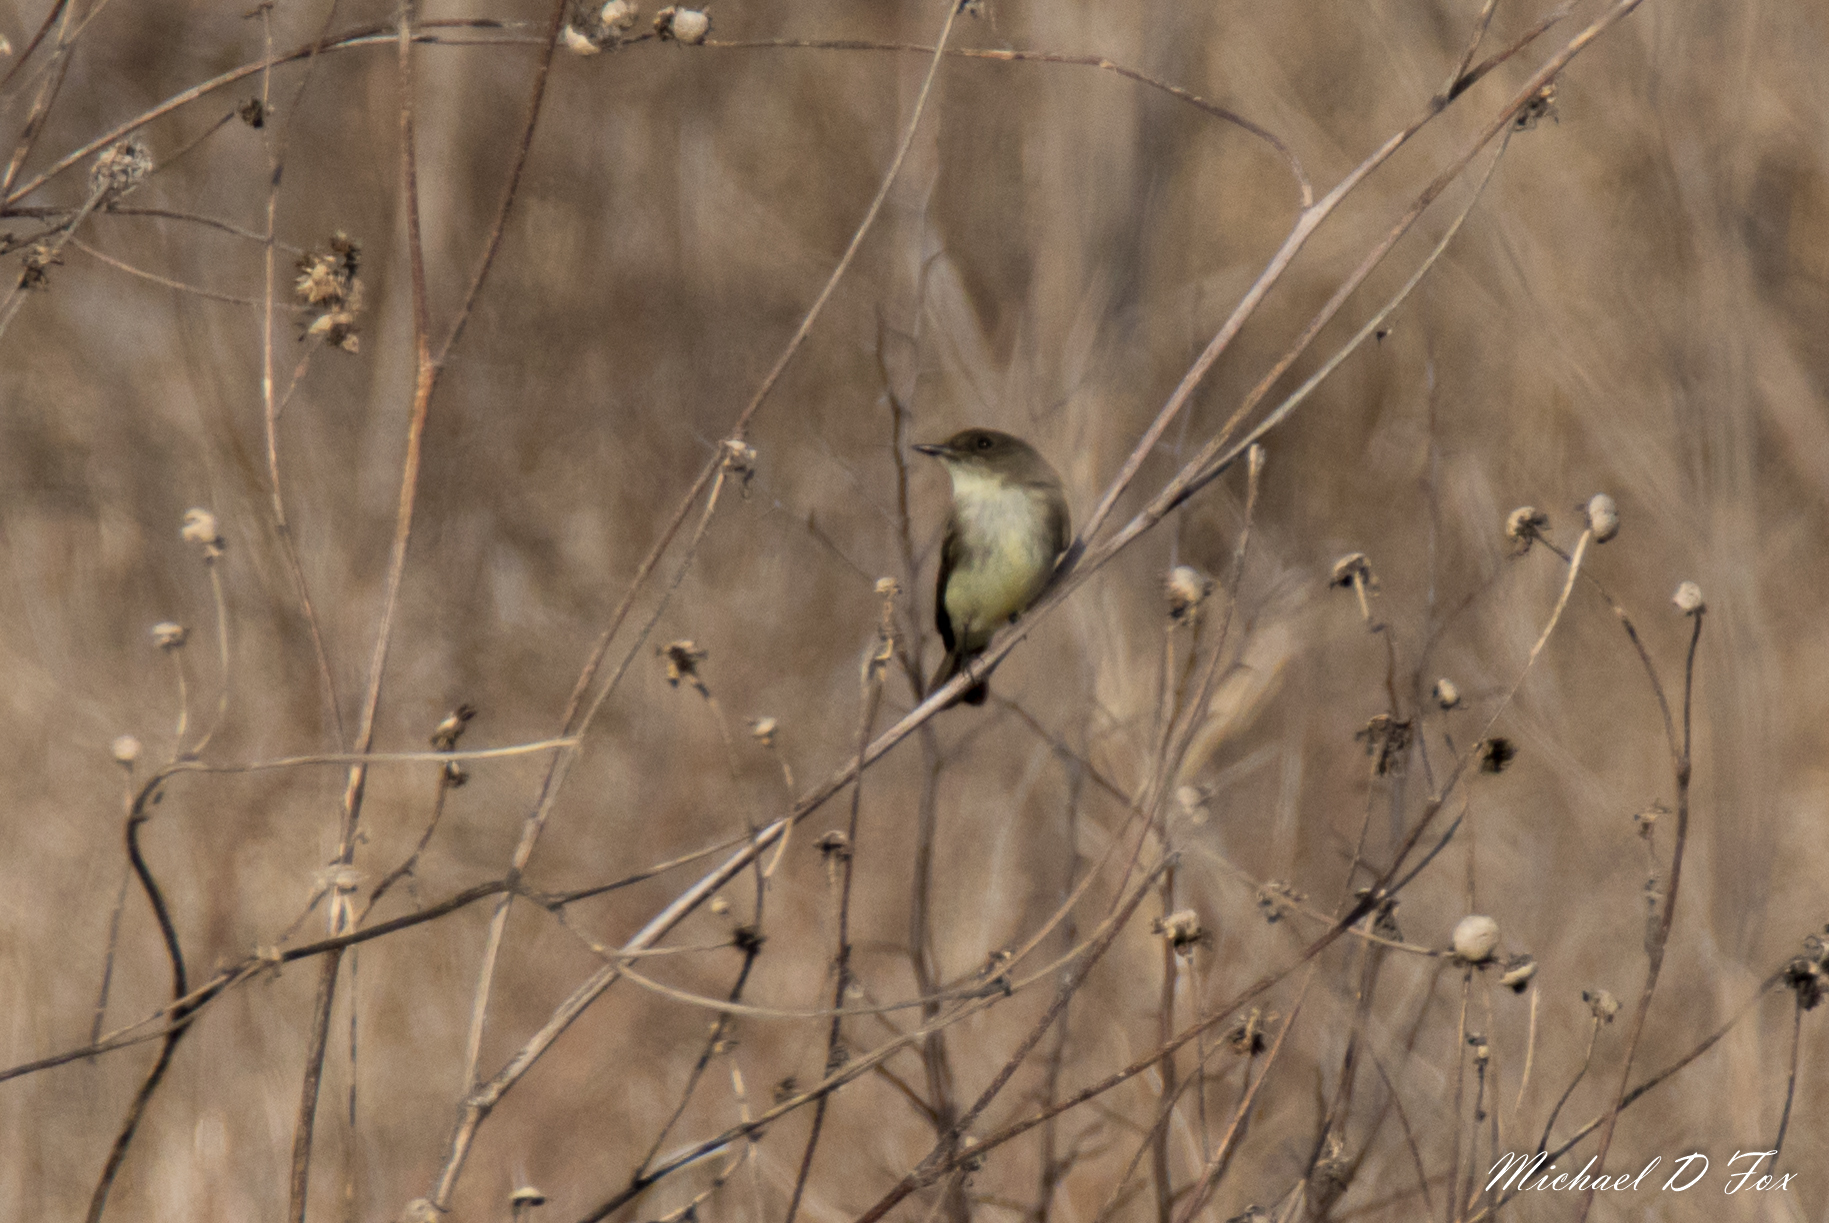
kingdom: Animalia
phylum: Chordata
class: Aves
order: Passeriformes
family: Tyrannidae
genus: Sayornis
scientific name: Sayornis phoebe
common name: Eastern phoebe
